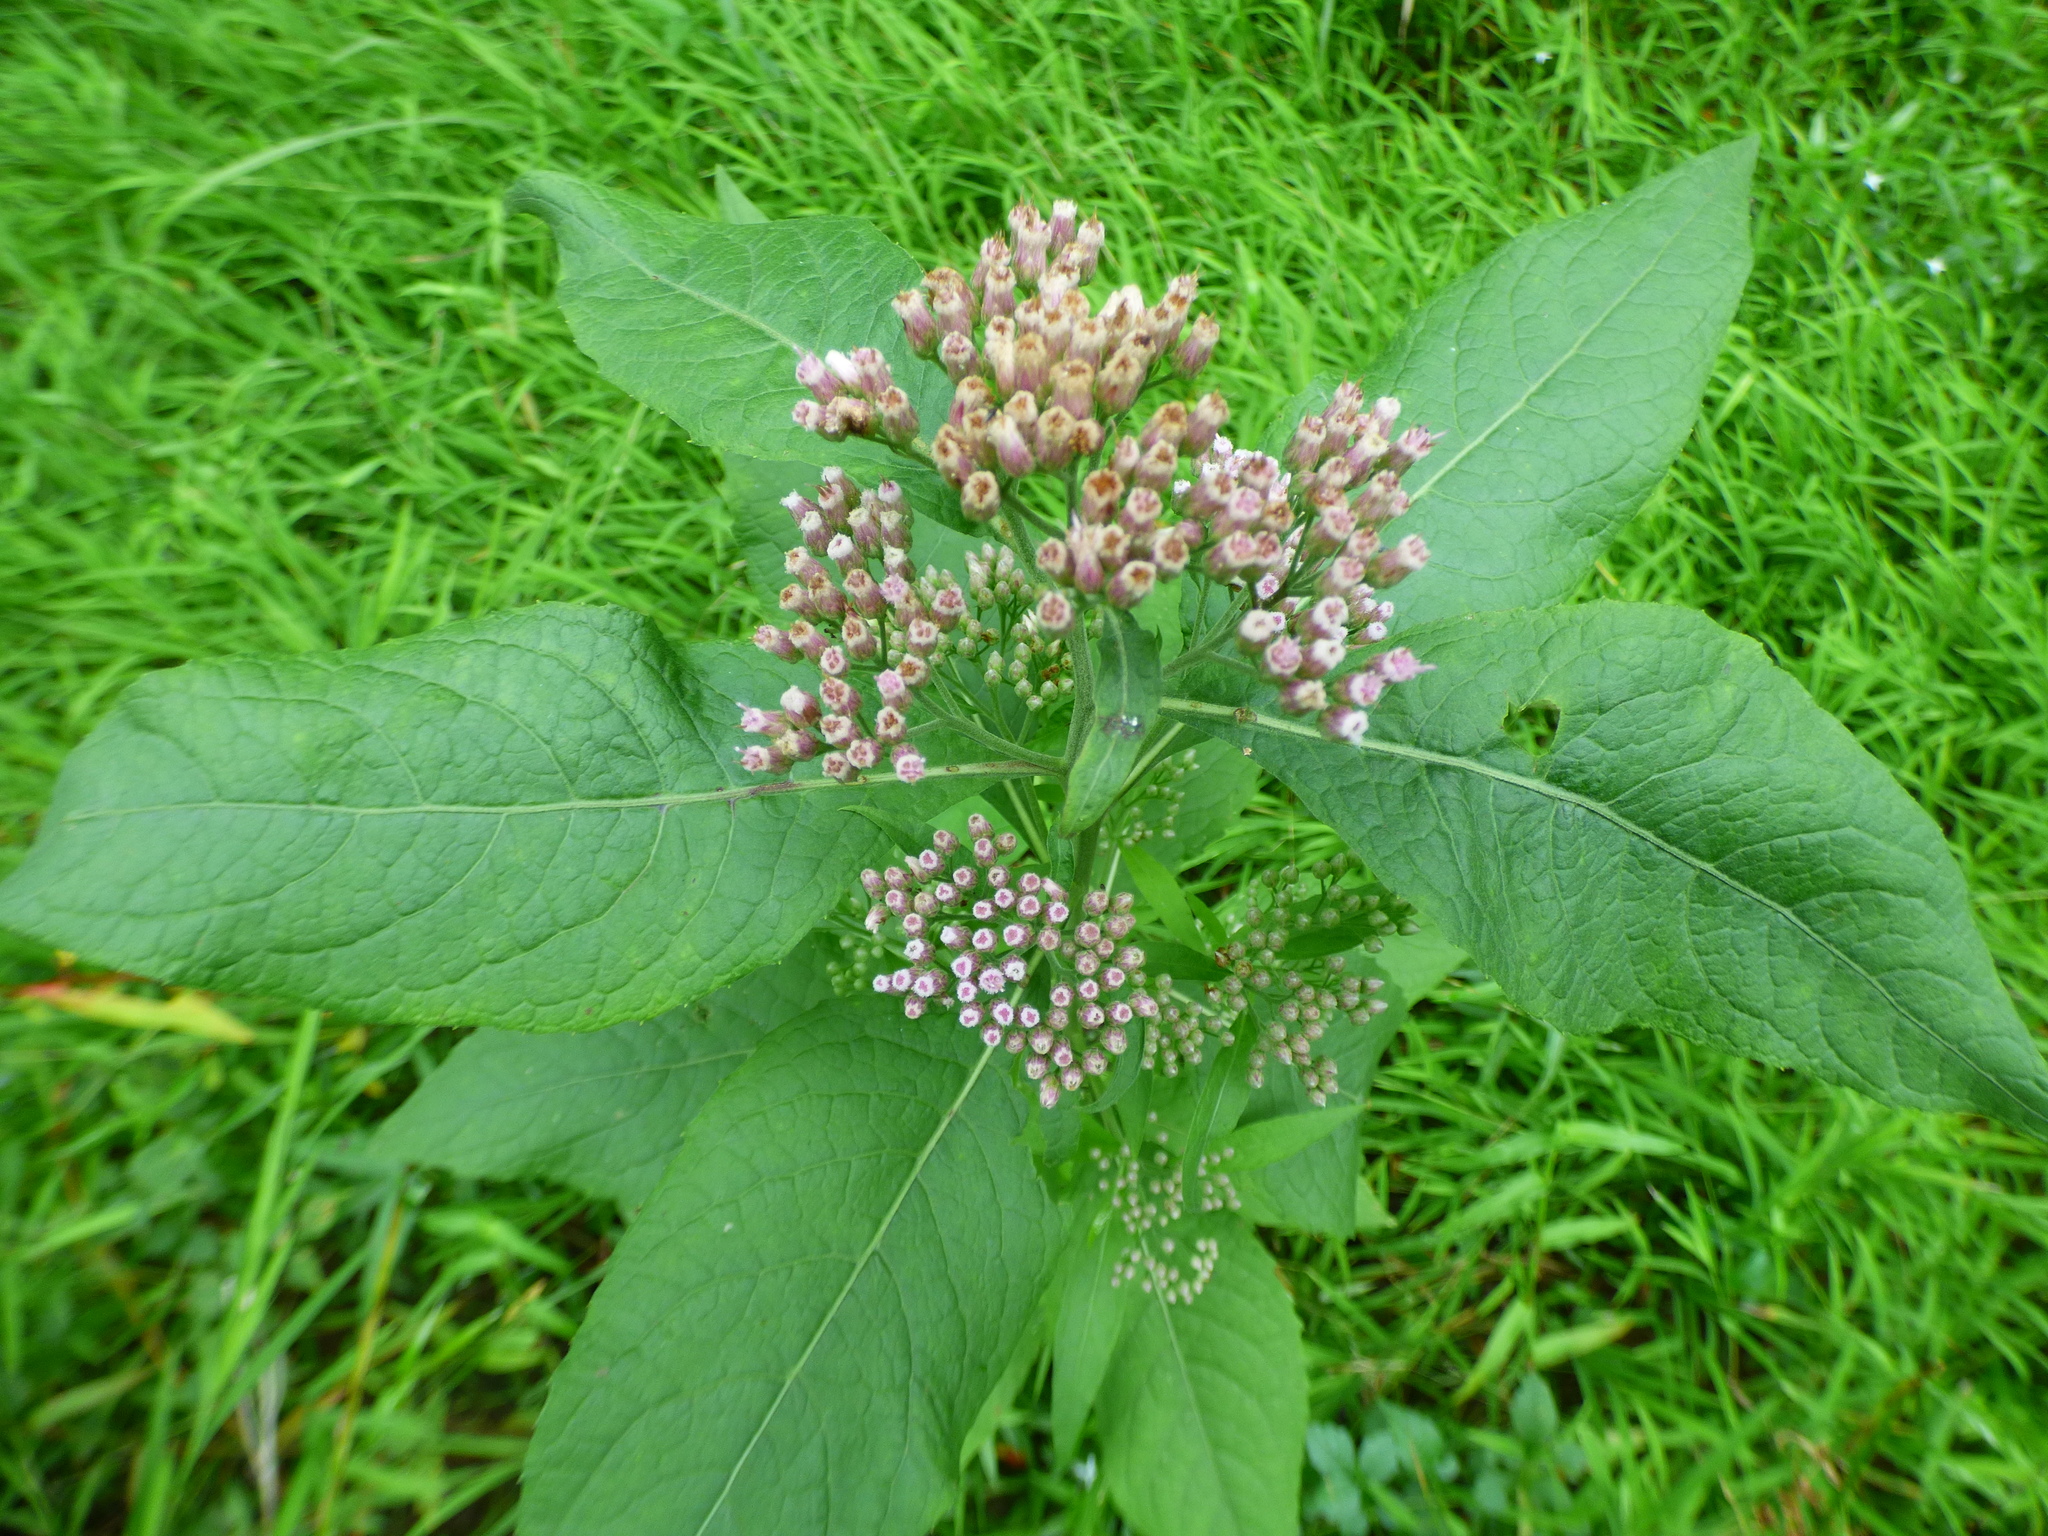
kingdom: Plantae
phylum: Tracheophyta
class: Magnoliopsida
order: Asterales
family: Asteraceae
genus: Pluchea
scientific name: Pluchea camphorata
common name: Camphor pluchea
